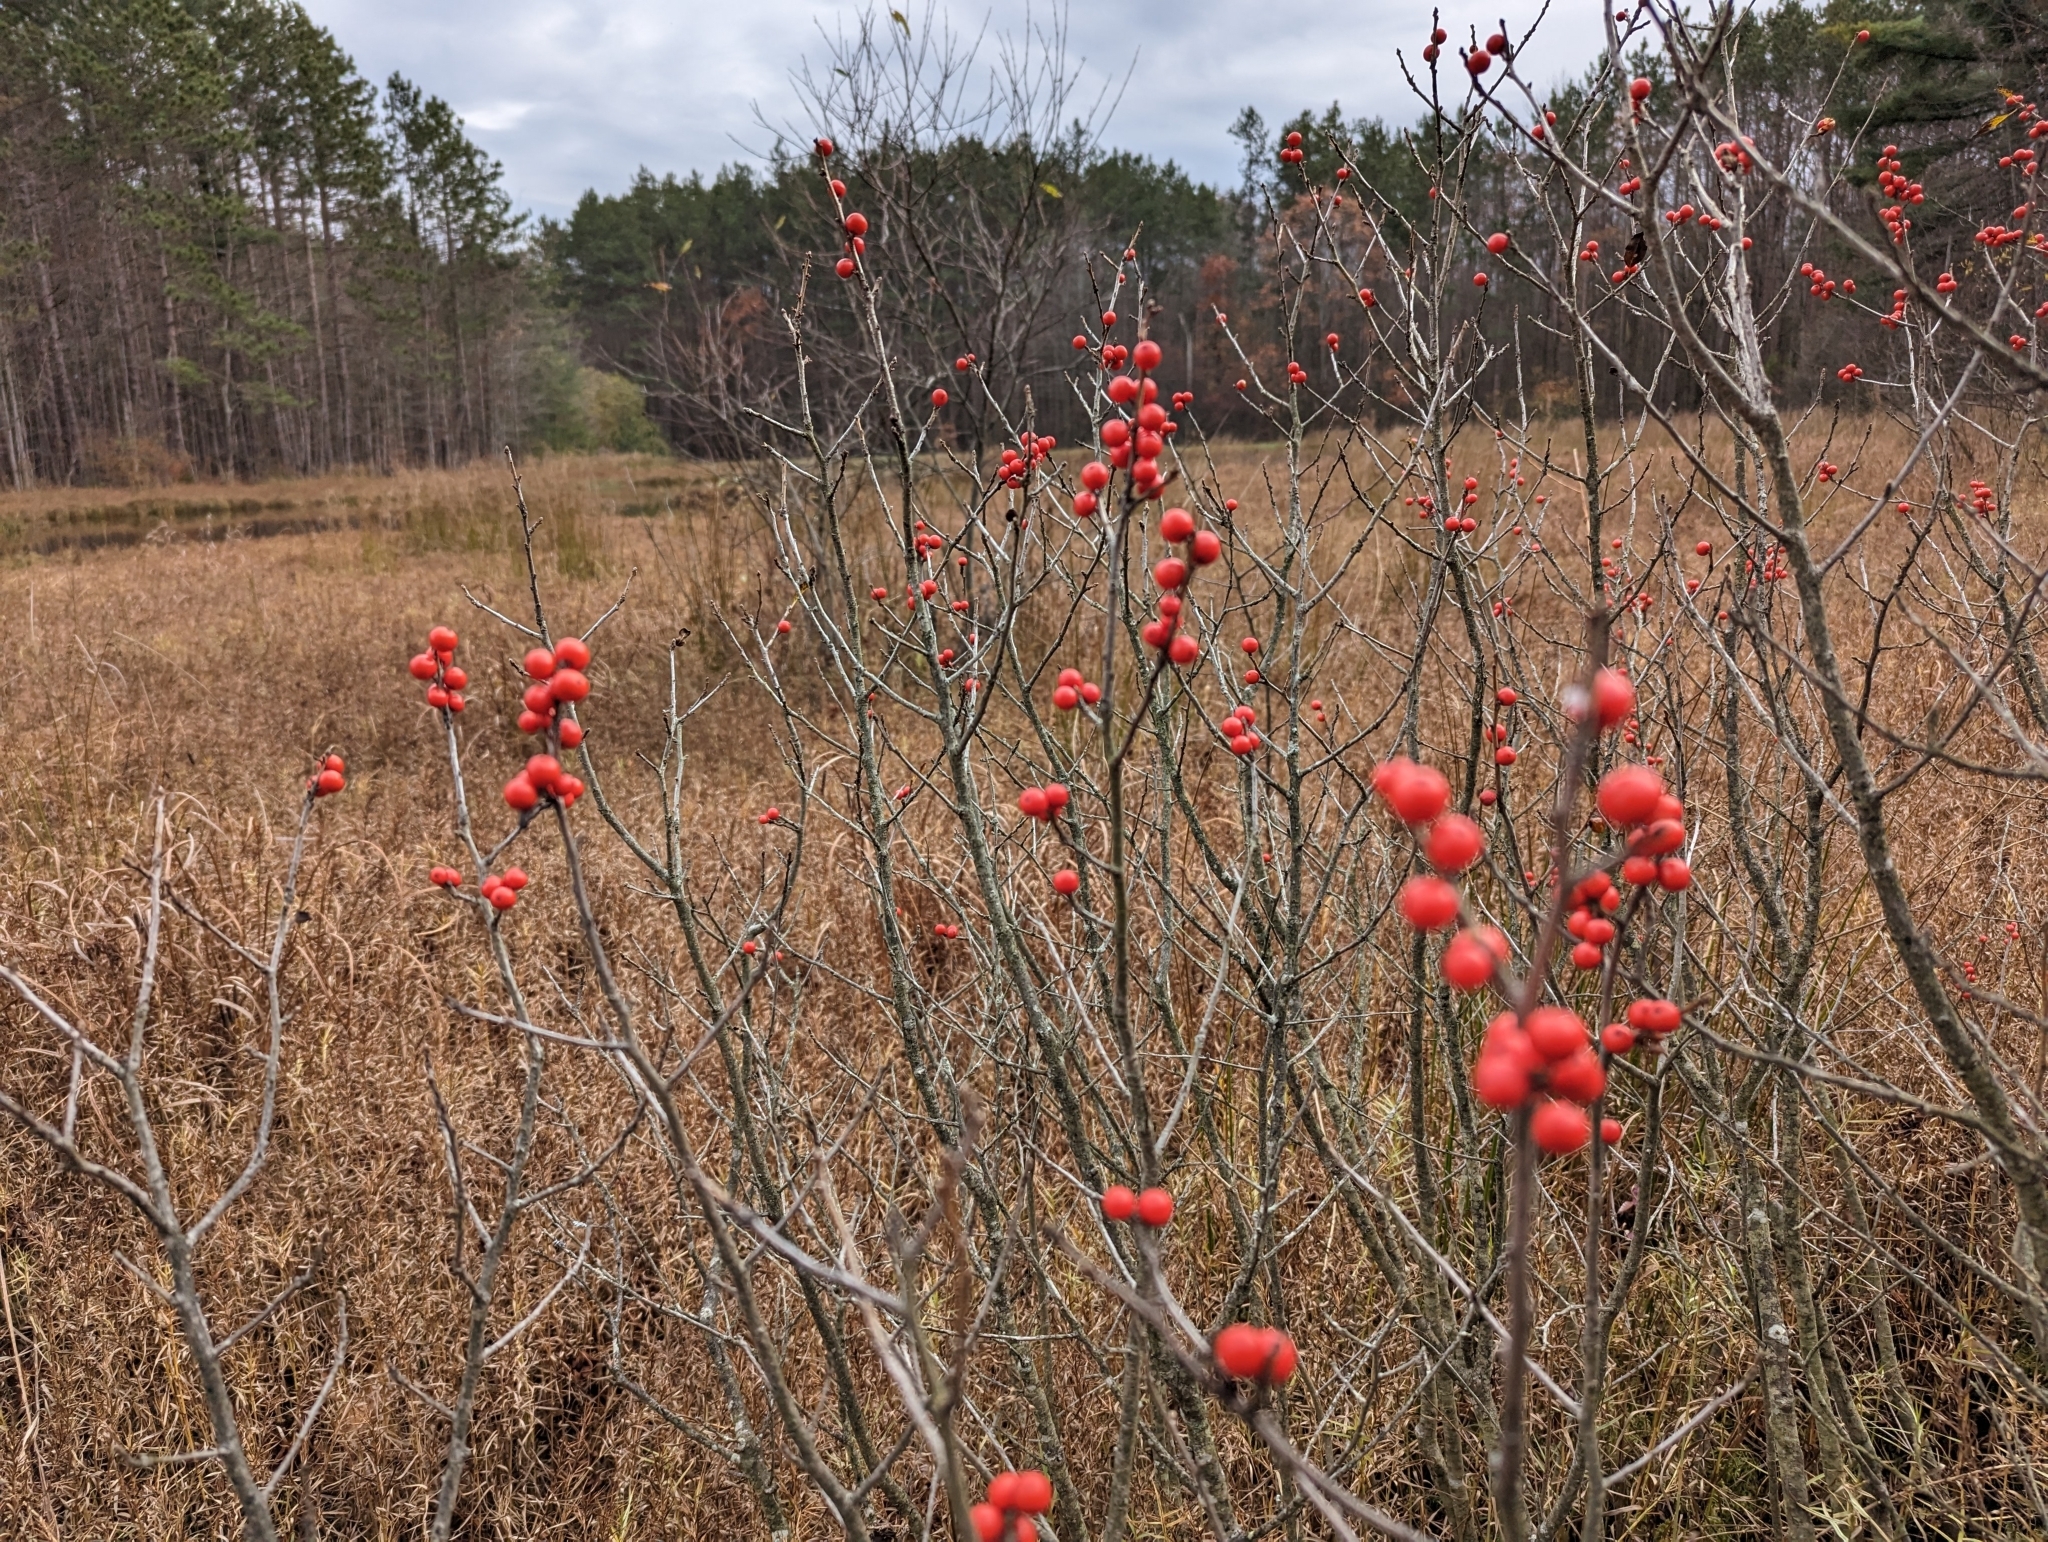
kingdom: Plantae
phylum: Tracheophyta
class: Magnoliopsida
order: Aquifoliales
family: Aquifoliaceae
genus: Ilex
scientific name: Ilex verticillata
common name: Virginia winterberry
